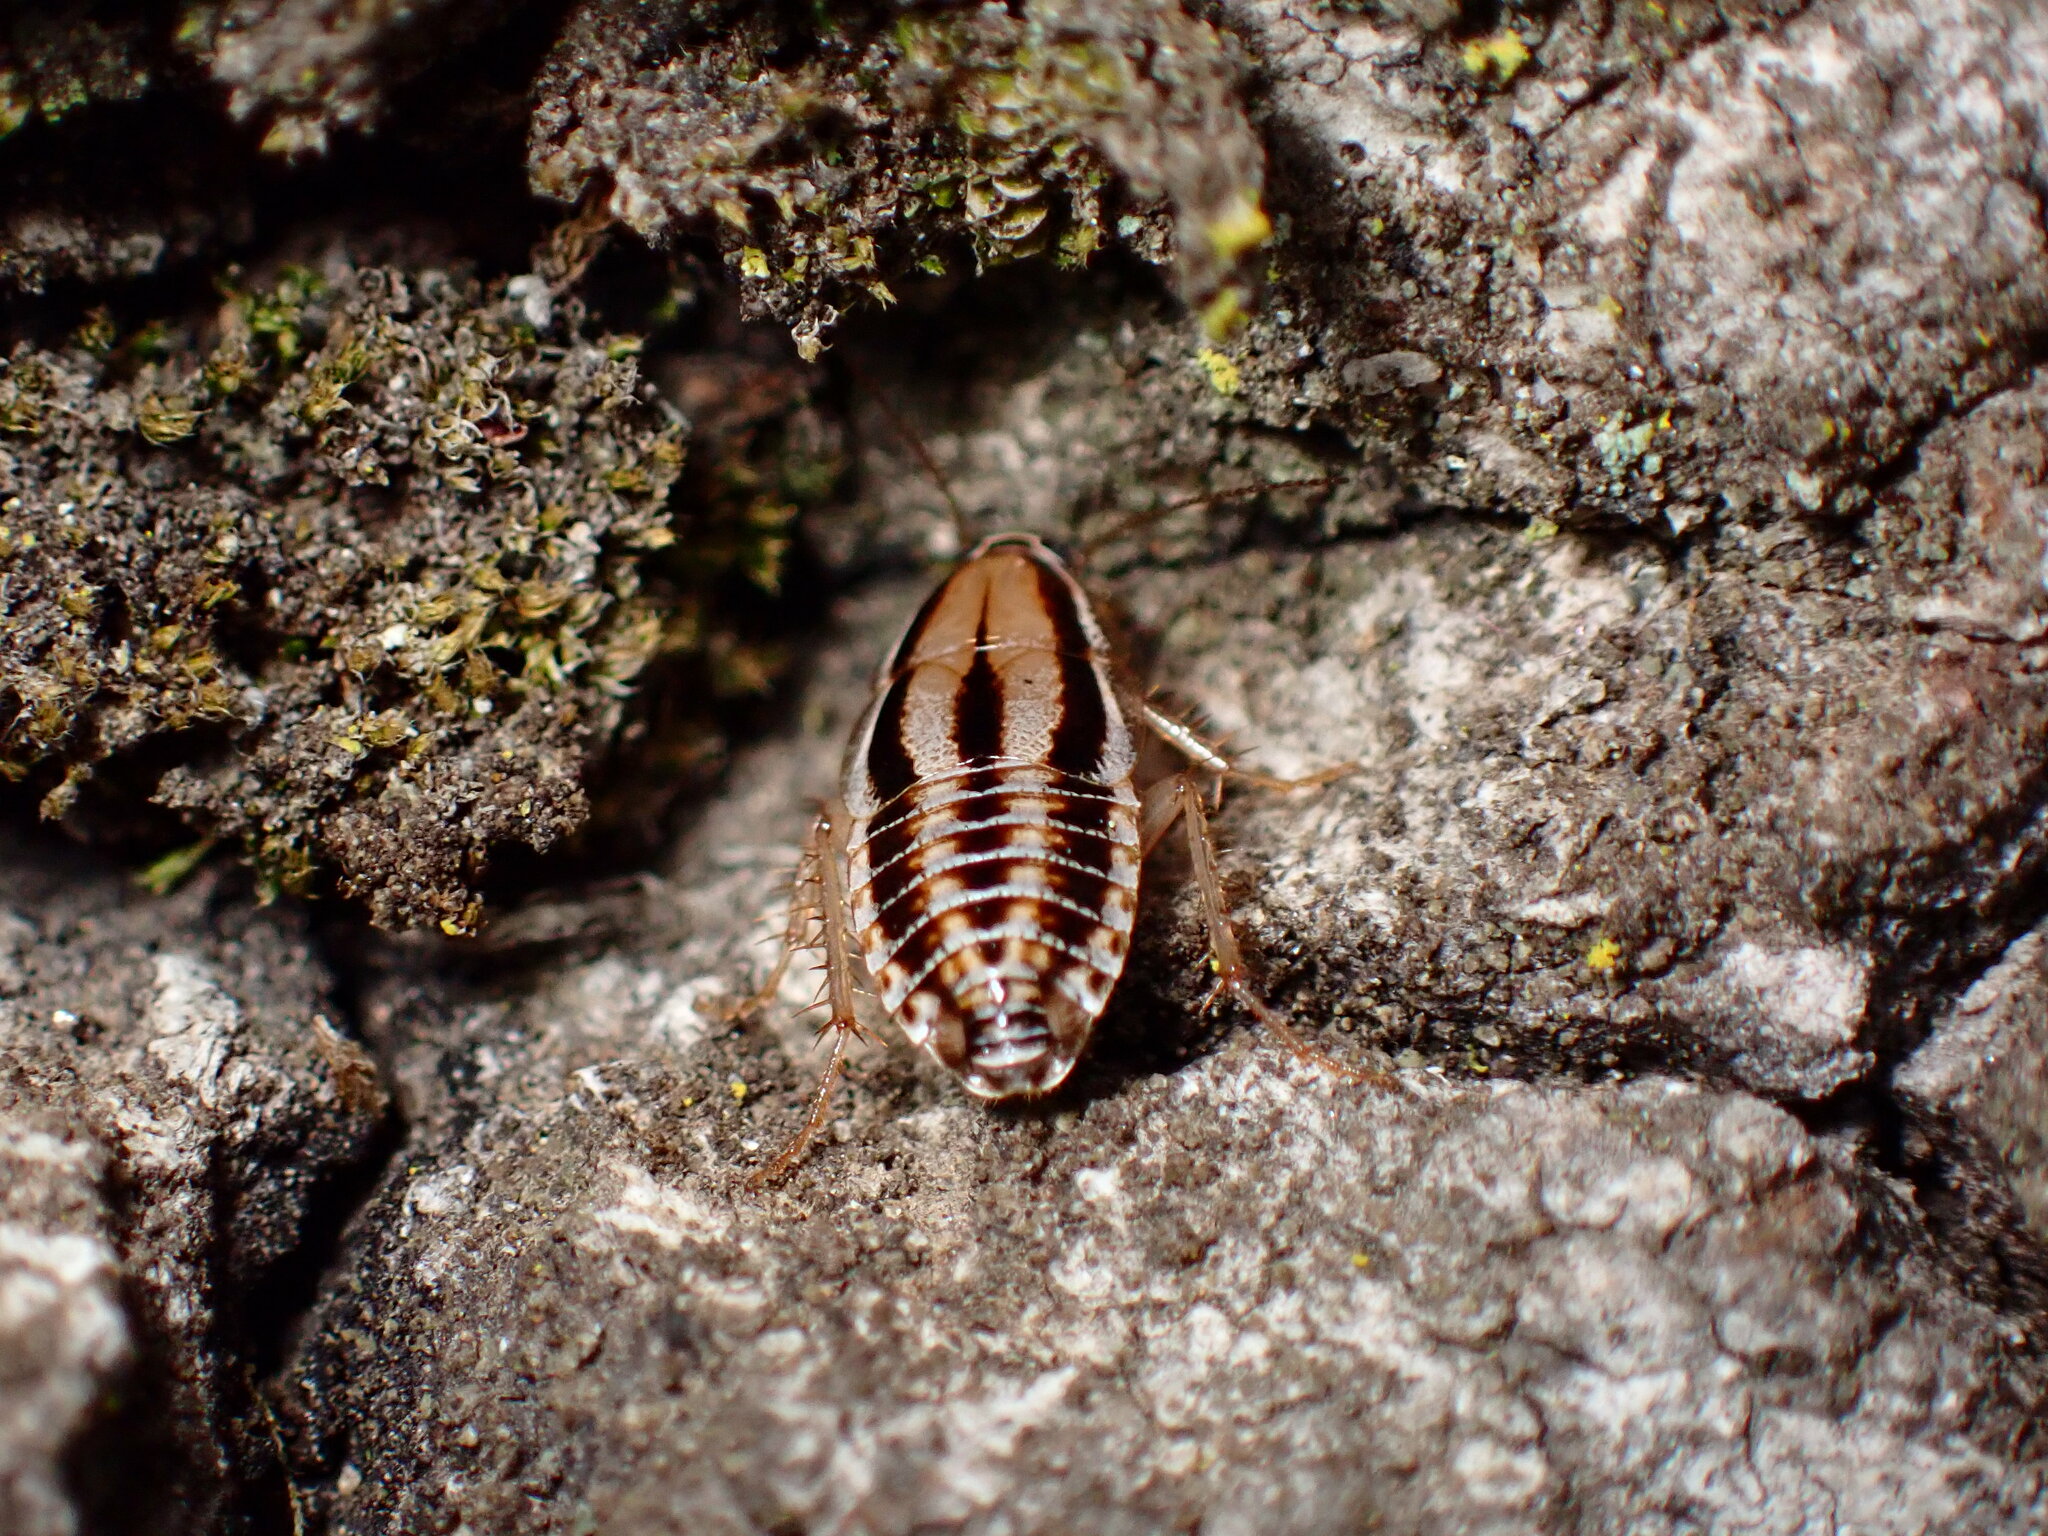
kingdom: Animalia
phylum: Arthropoda
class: Insecta
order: Blattodea
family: Ectobiidae
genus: Luridiblatta
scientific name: Luridiblatta trivittata
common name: Three-lined cockroach
